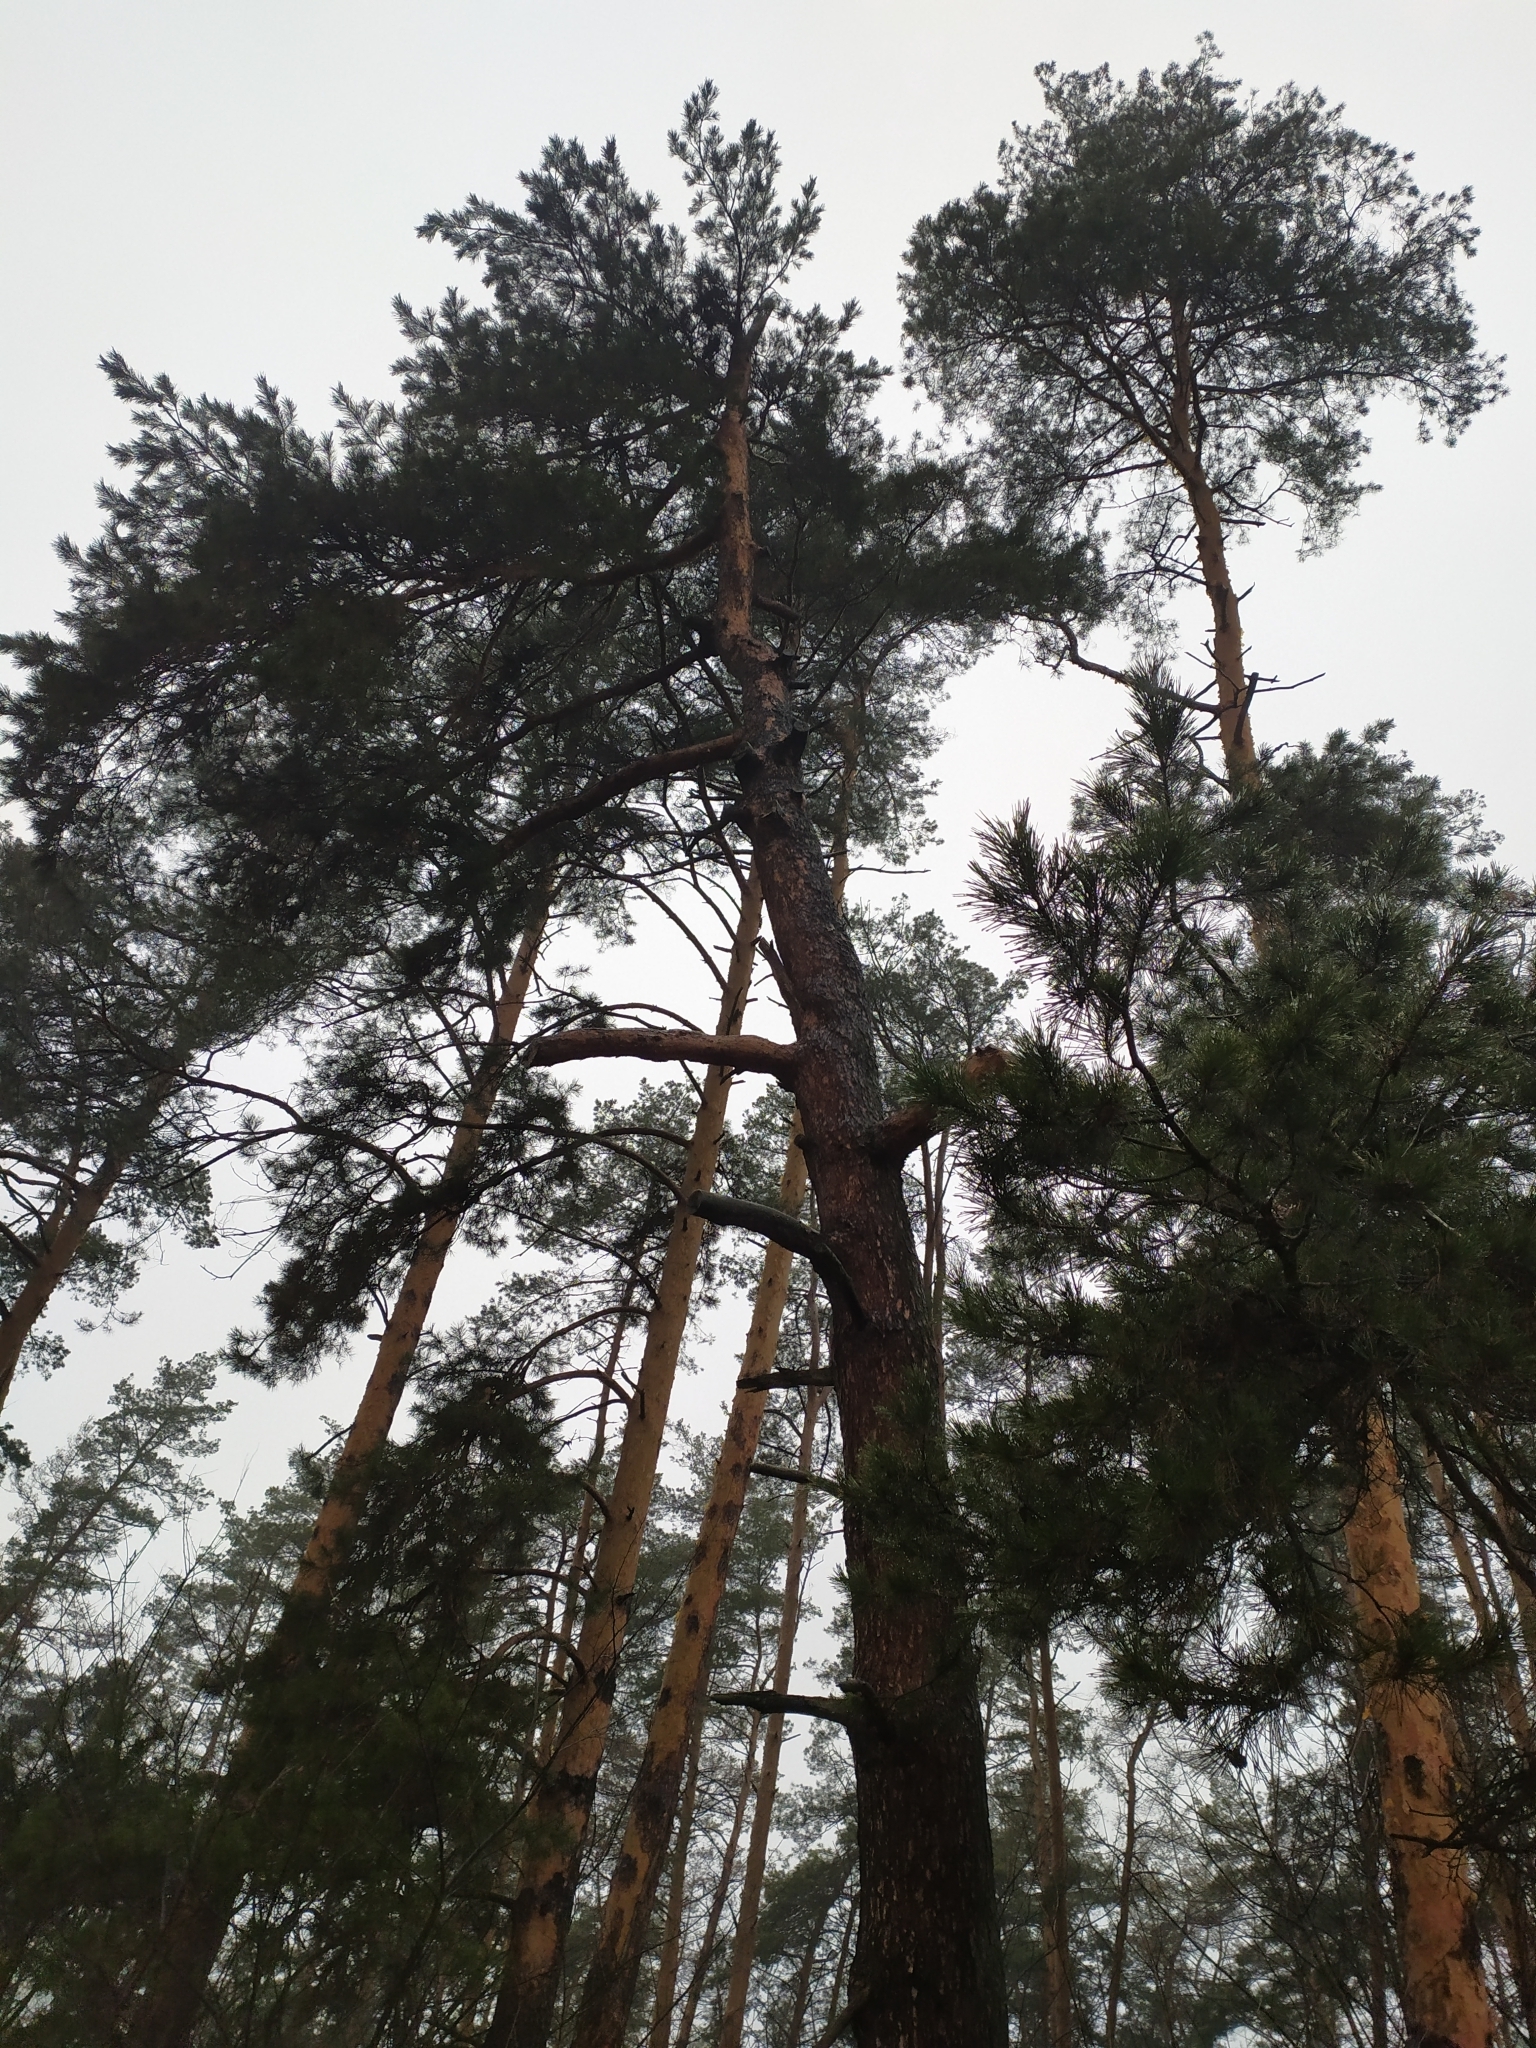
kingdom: Plantae
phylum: Tracheophyta
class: Pinopsida
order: Pinales
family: Pinaceae
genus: Pinus
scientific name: Pinus sylvestris
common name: Scots pine
